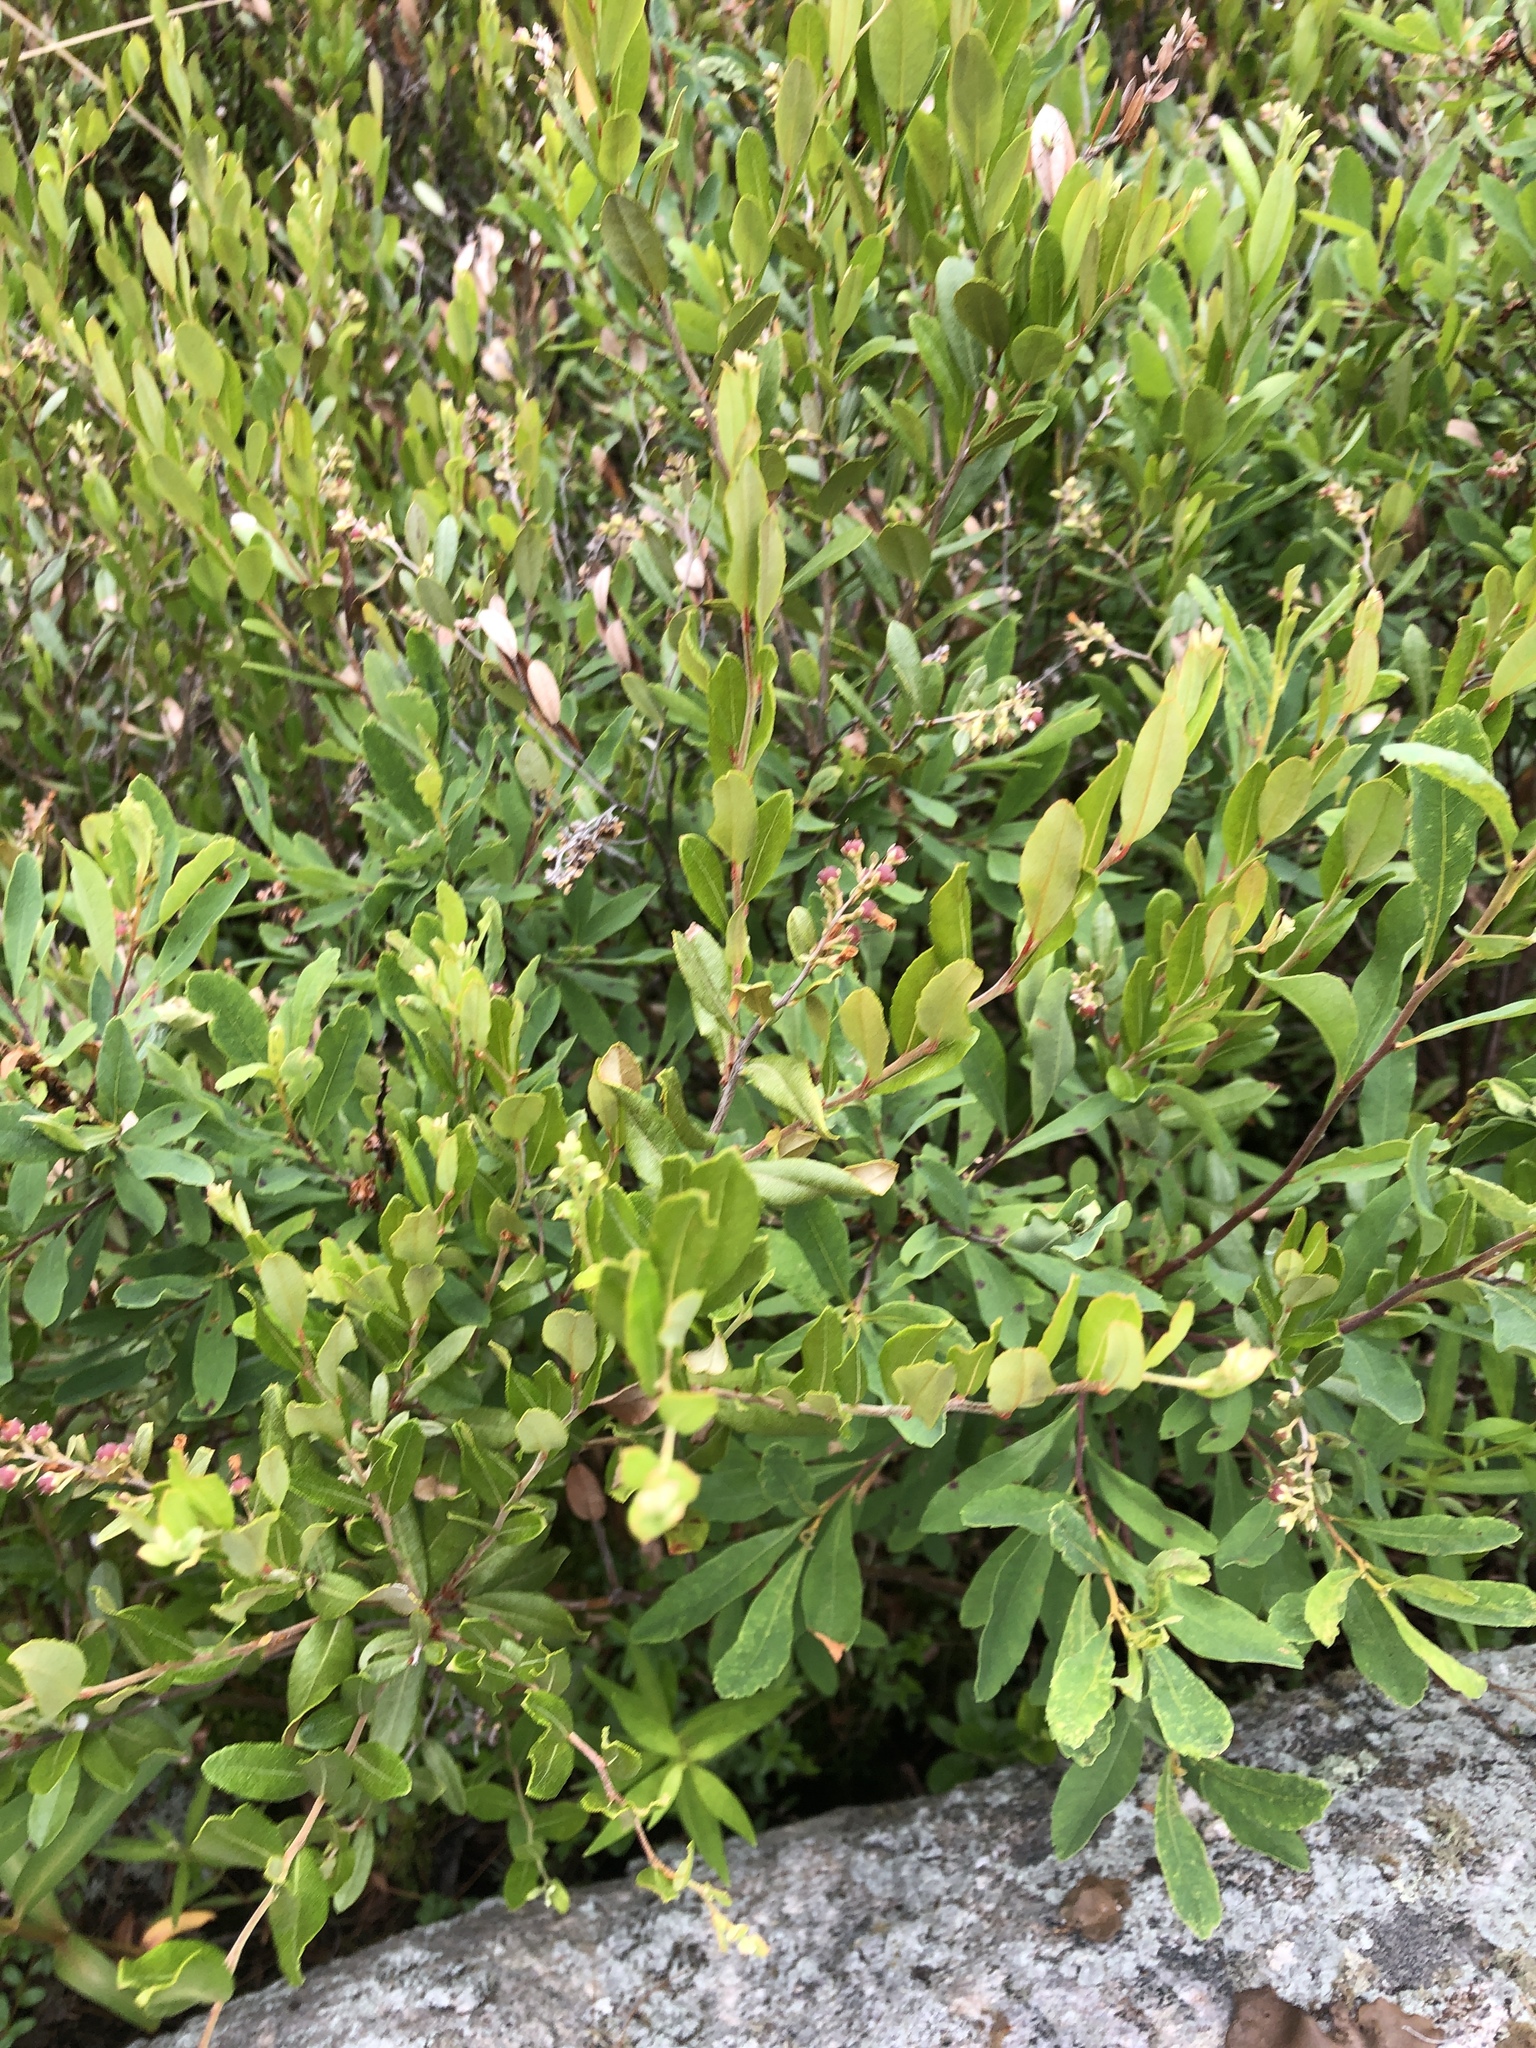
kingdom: Plantae
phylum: Tracheophyta
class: Magnoliopsida
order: Fagales
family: Myricaceae
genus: Myrica
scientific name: Myrica gale
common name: Sweet gale
